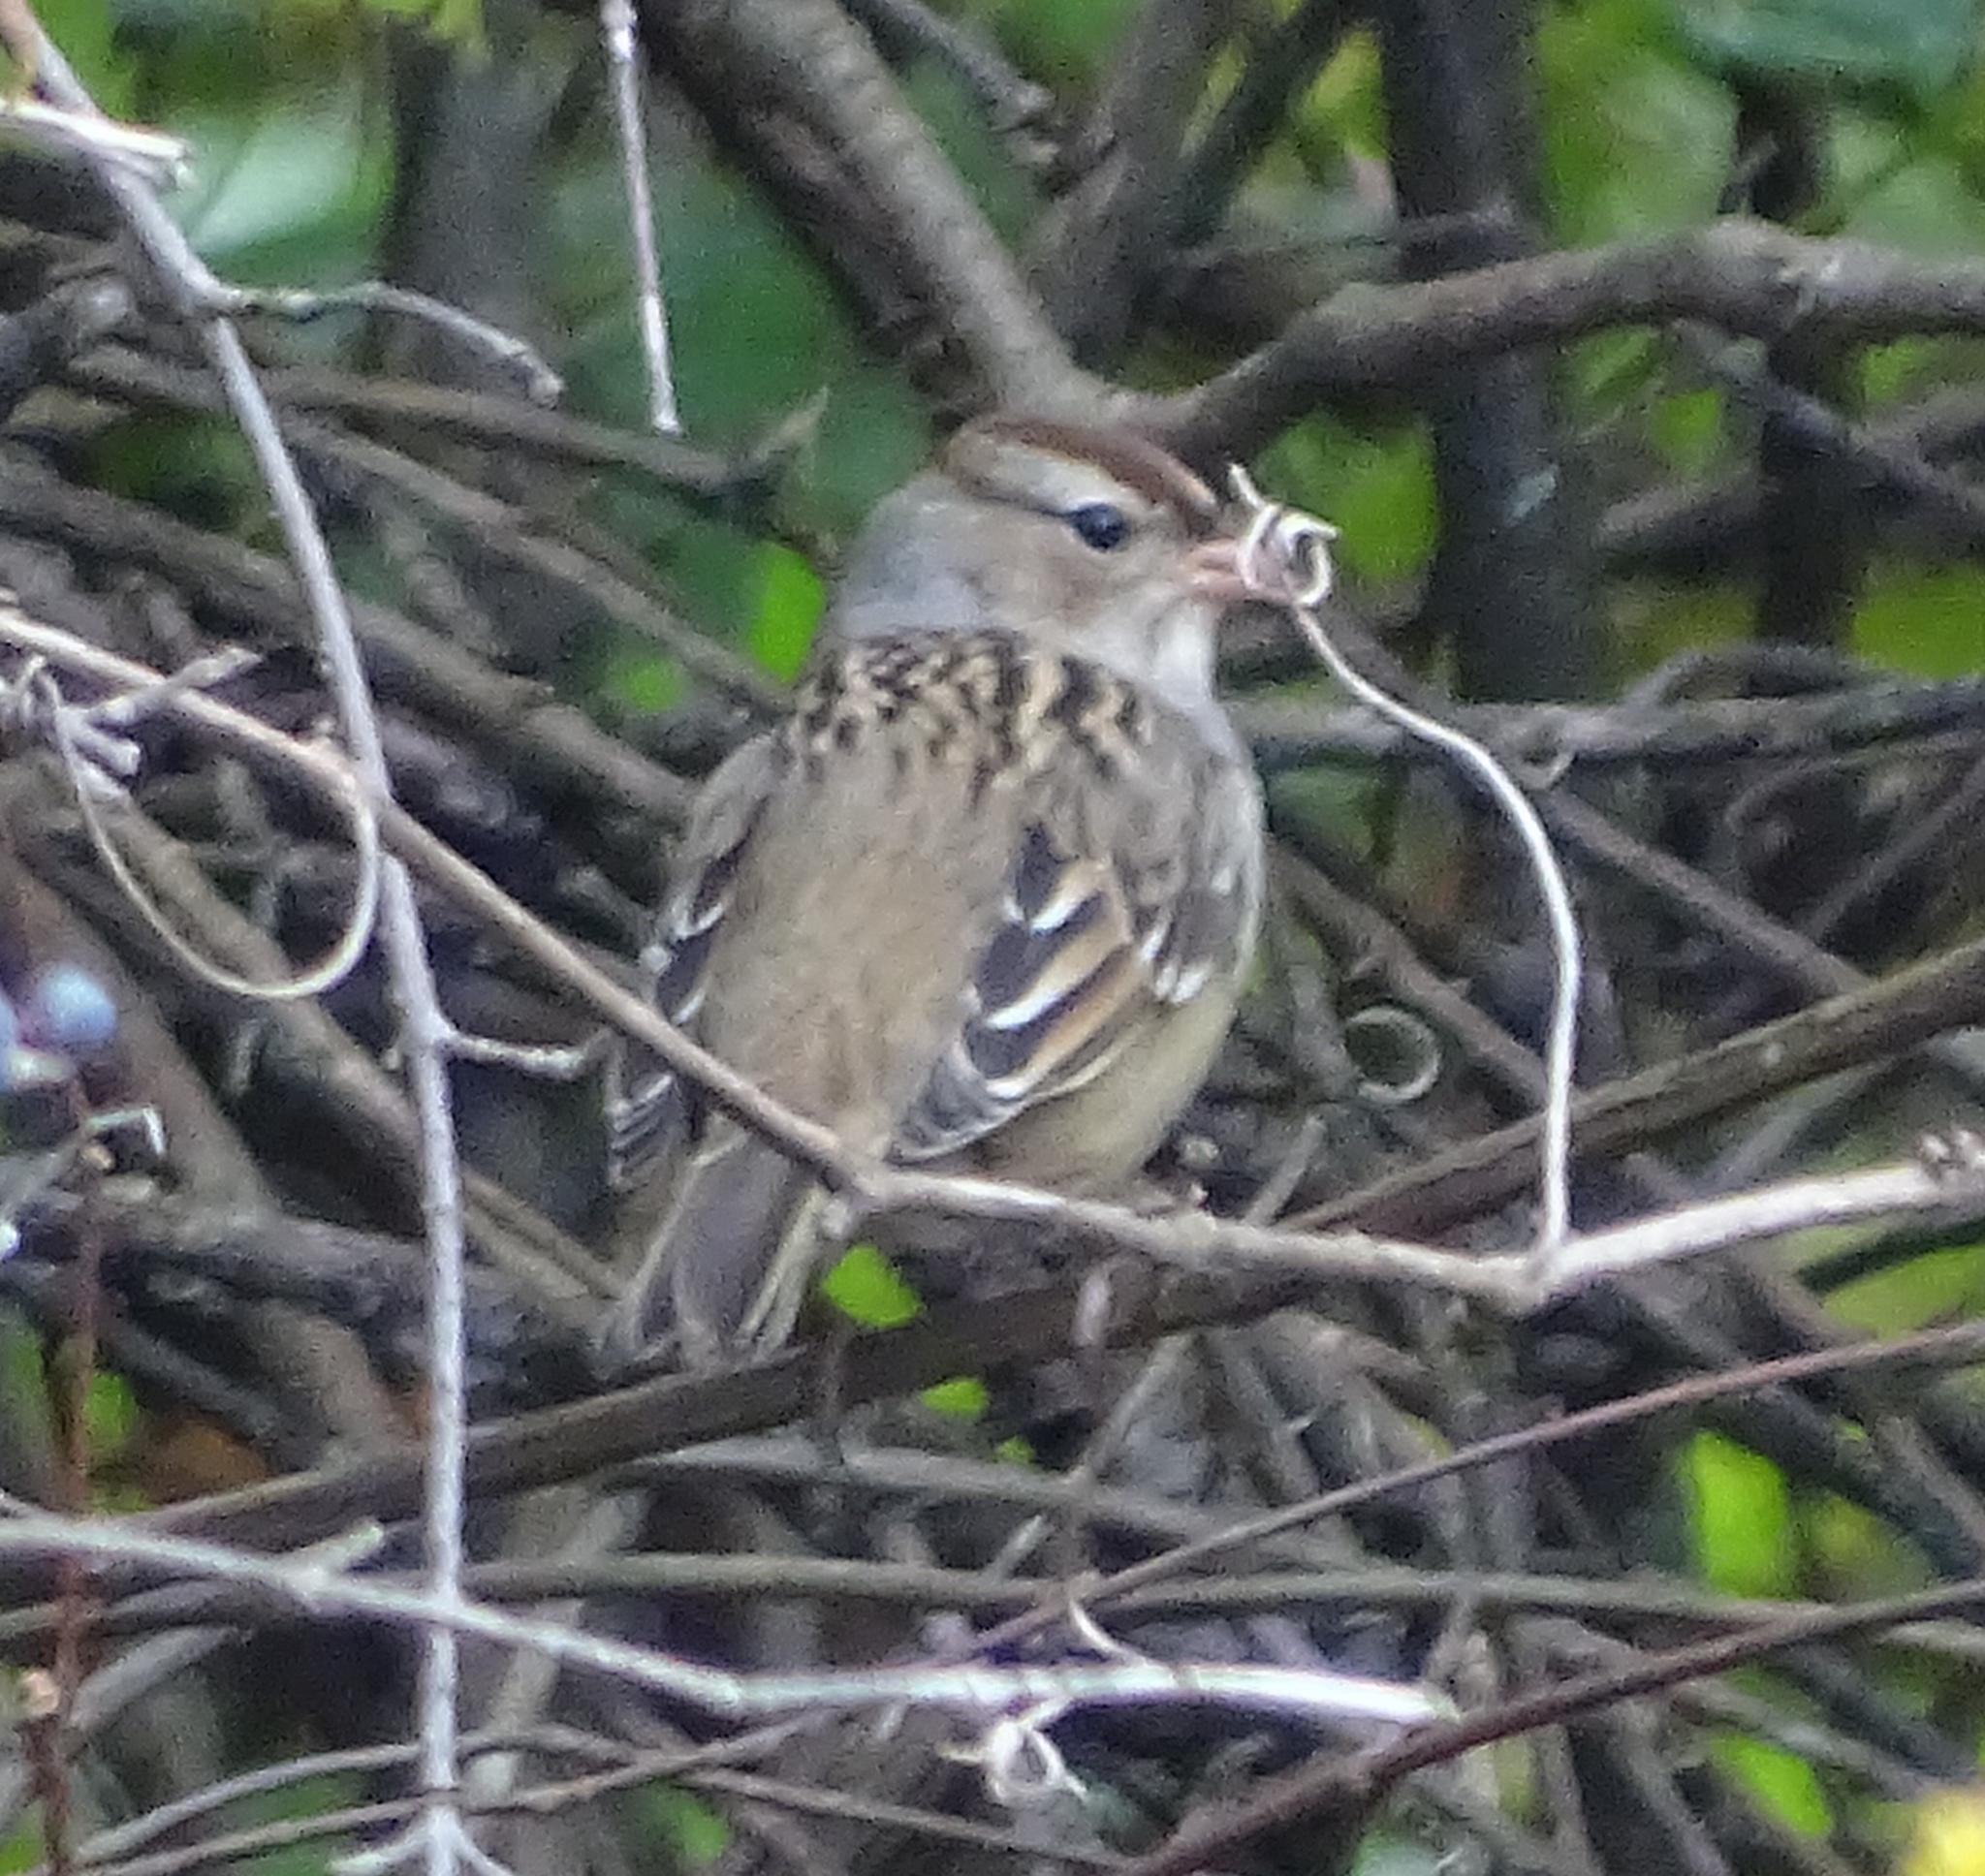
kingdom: Animalia
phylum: Chordata
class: Aves
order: Passeriformes
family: Passerellidae
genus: Zonotrichia
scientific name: Zonotrichia leucophrys
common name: White-crowned sparrow
